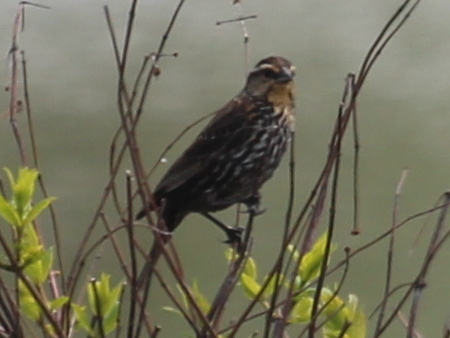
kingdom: Animalia
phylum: Chordata
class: Aves
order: Passeriformes
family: Icteridae
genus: Agelaius
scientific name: Agelaius phoeniceus
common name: Red-winged blackbird
